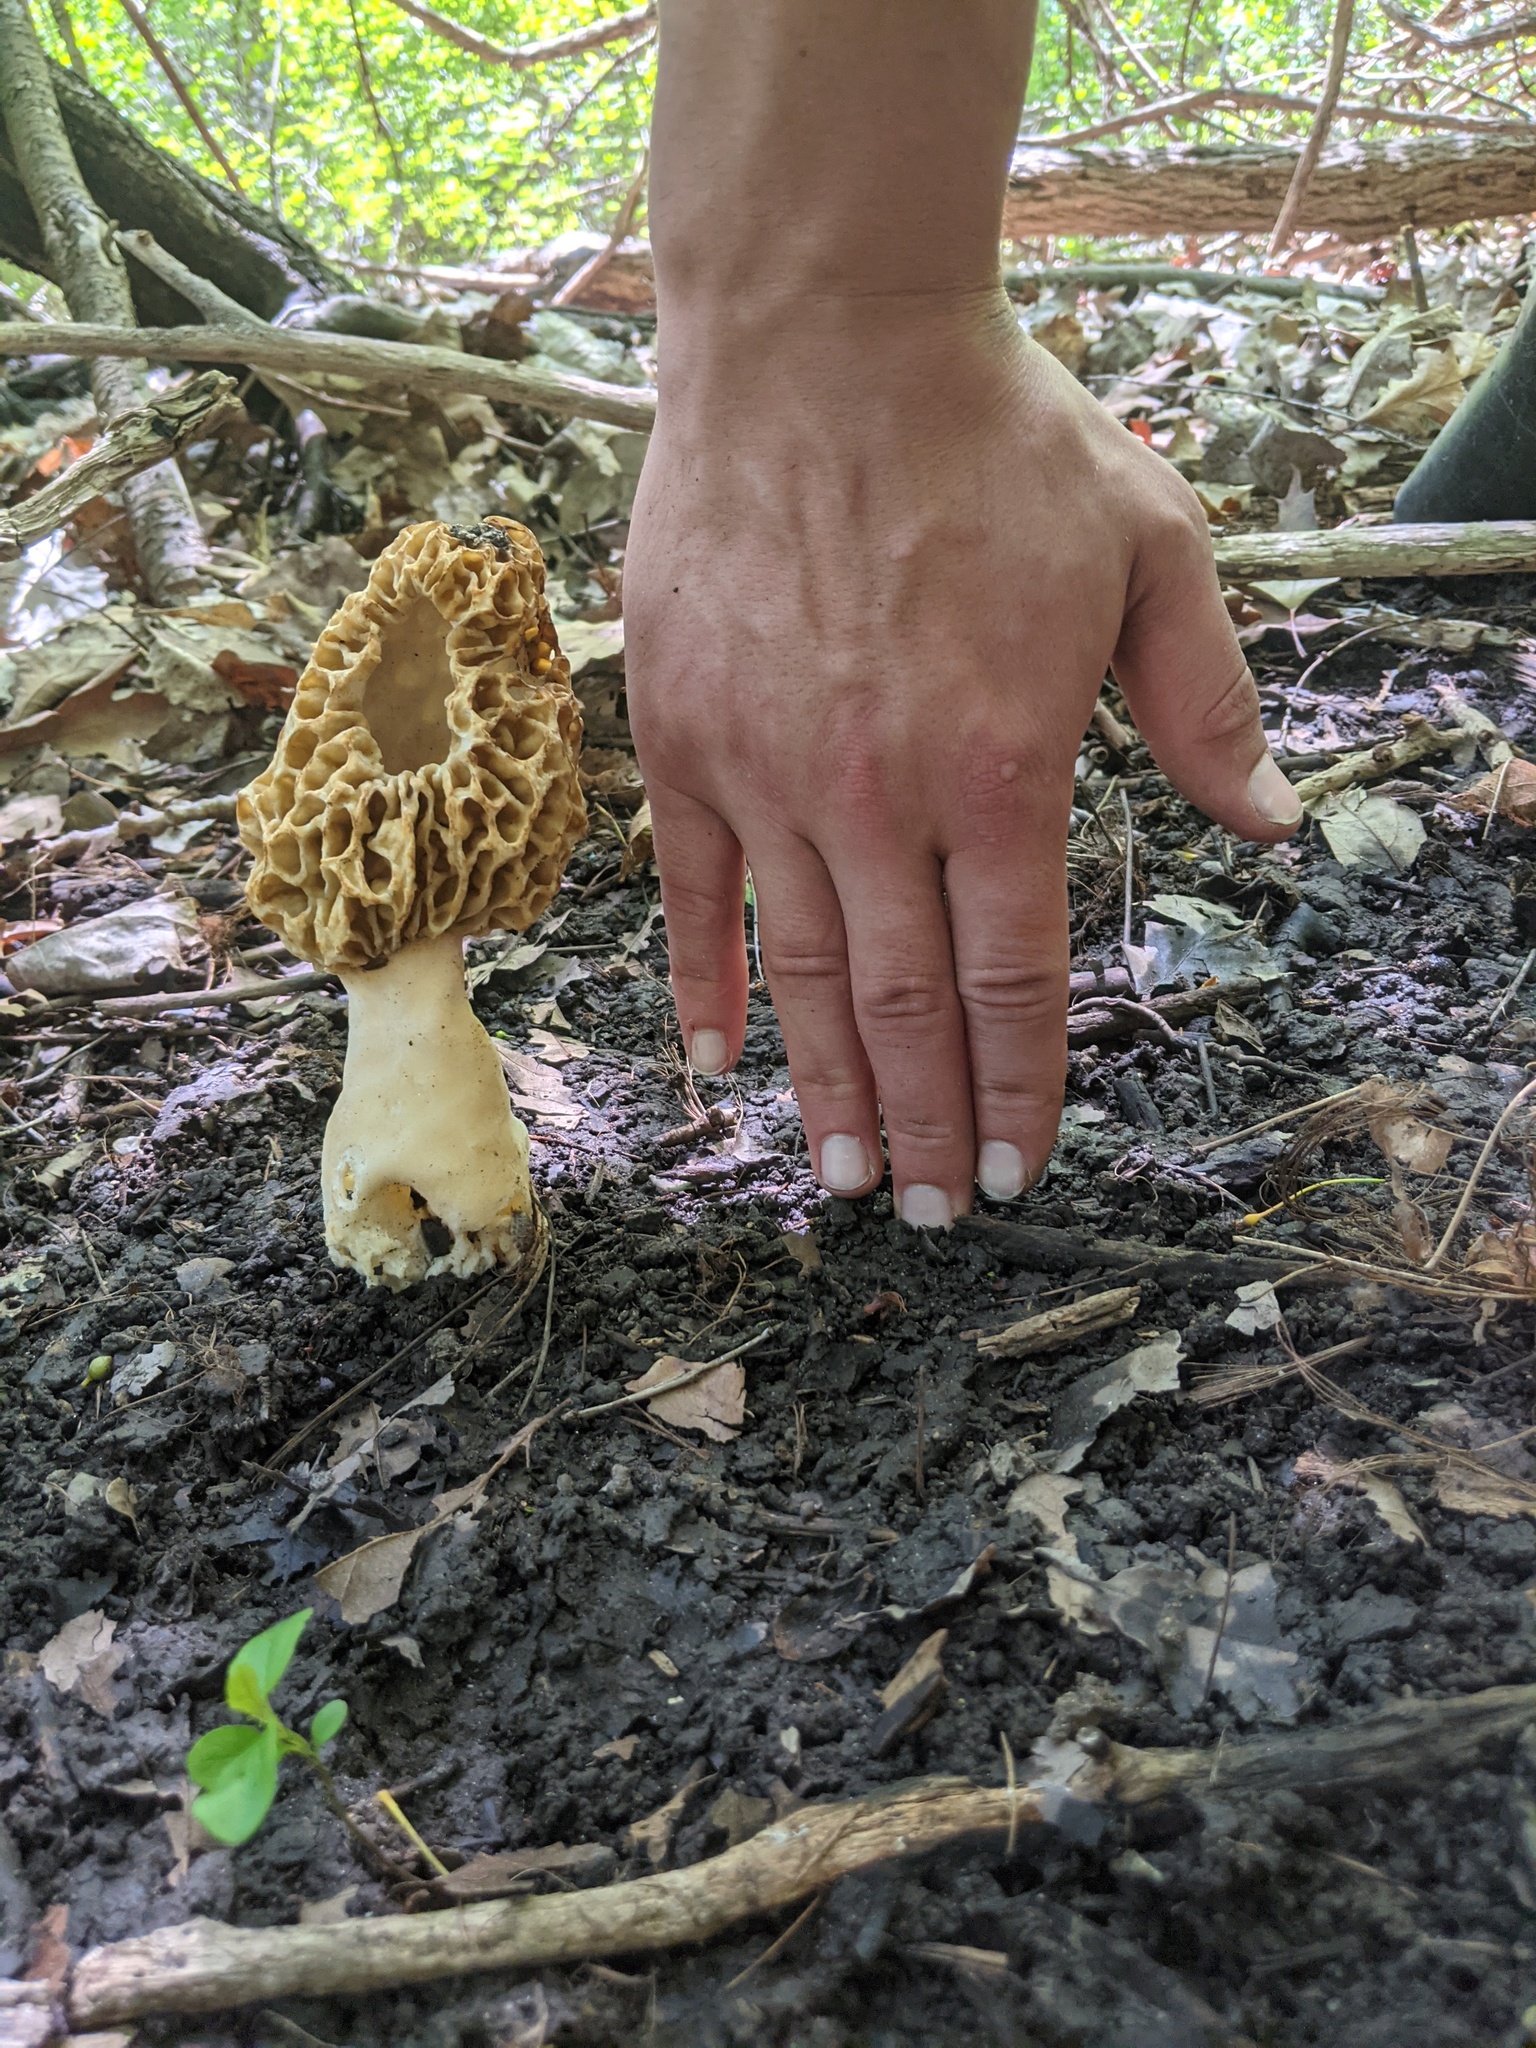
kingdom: Fungi
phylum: Ascomycota
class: Pezizomycetes
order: Pezizales
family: Morchellaceae
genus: Morchella
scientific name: Morchella americana
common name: White morel
